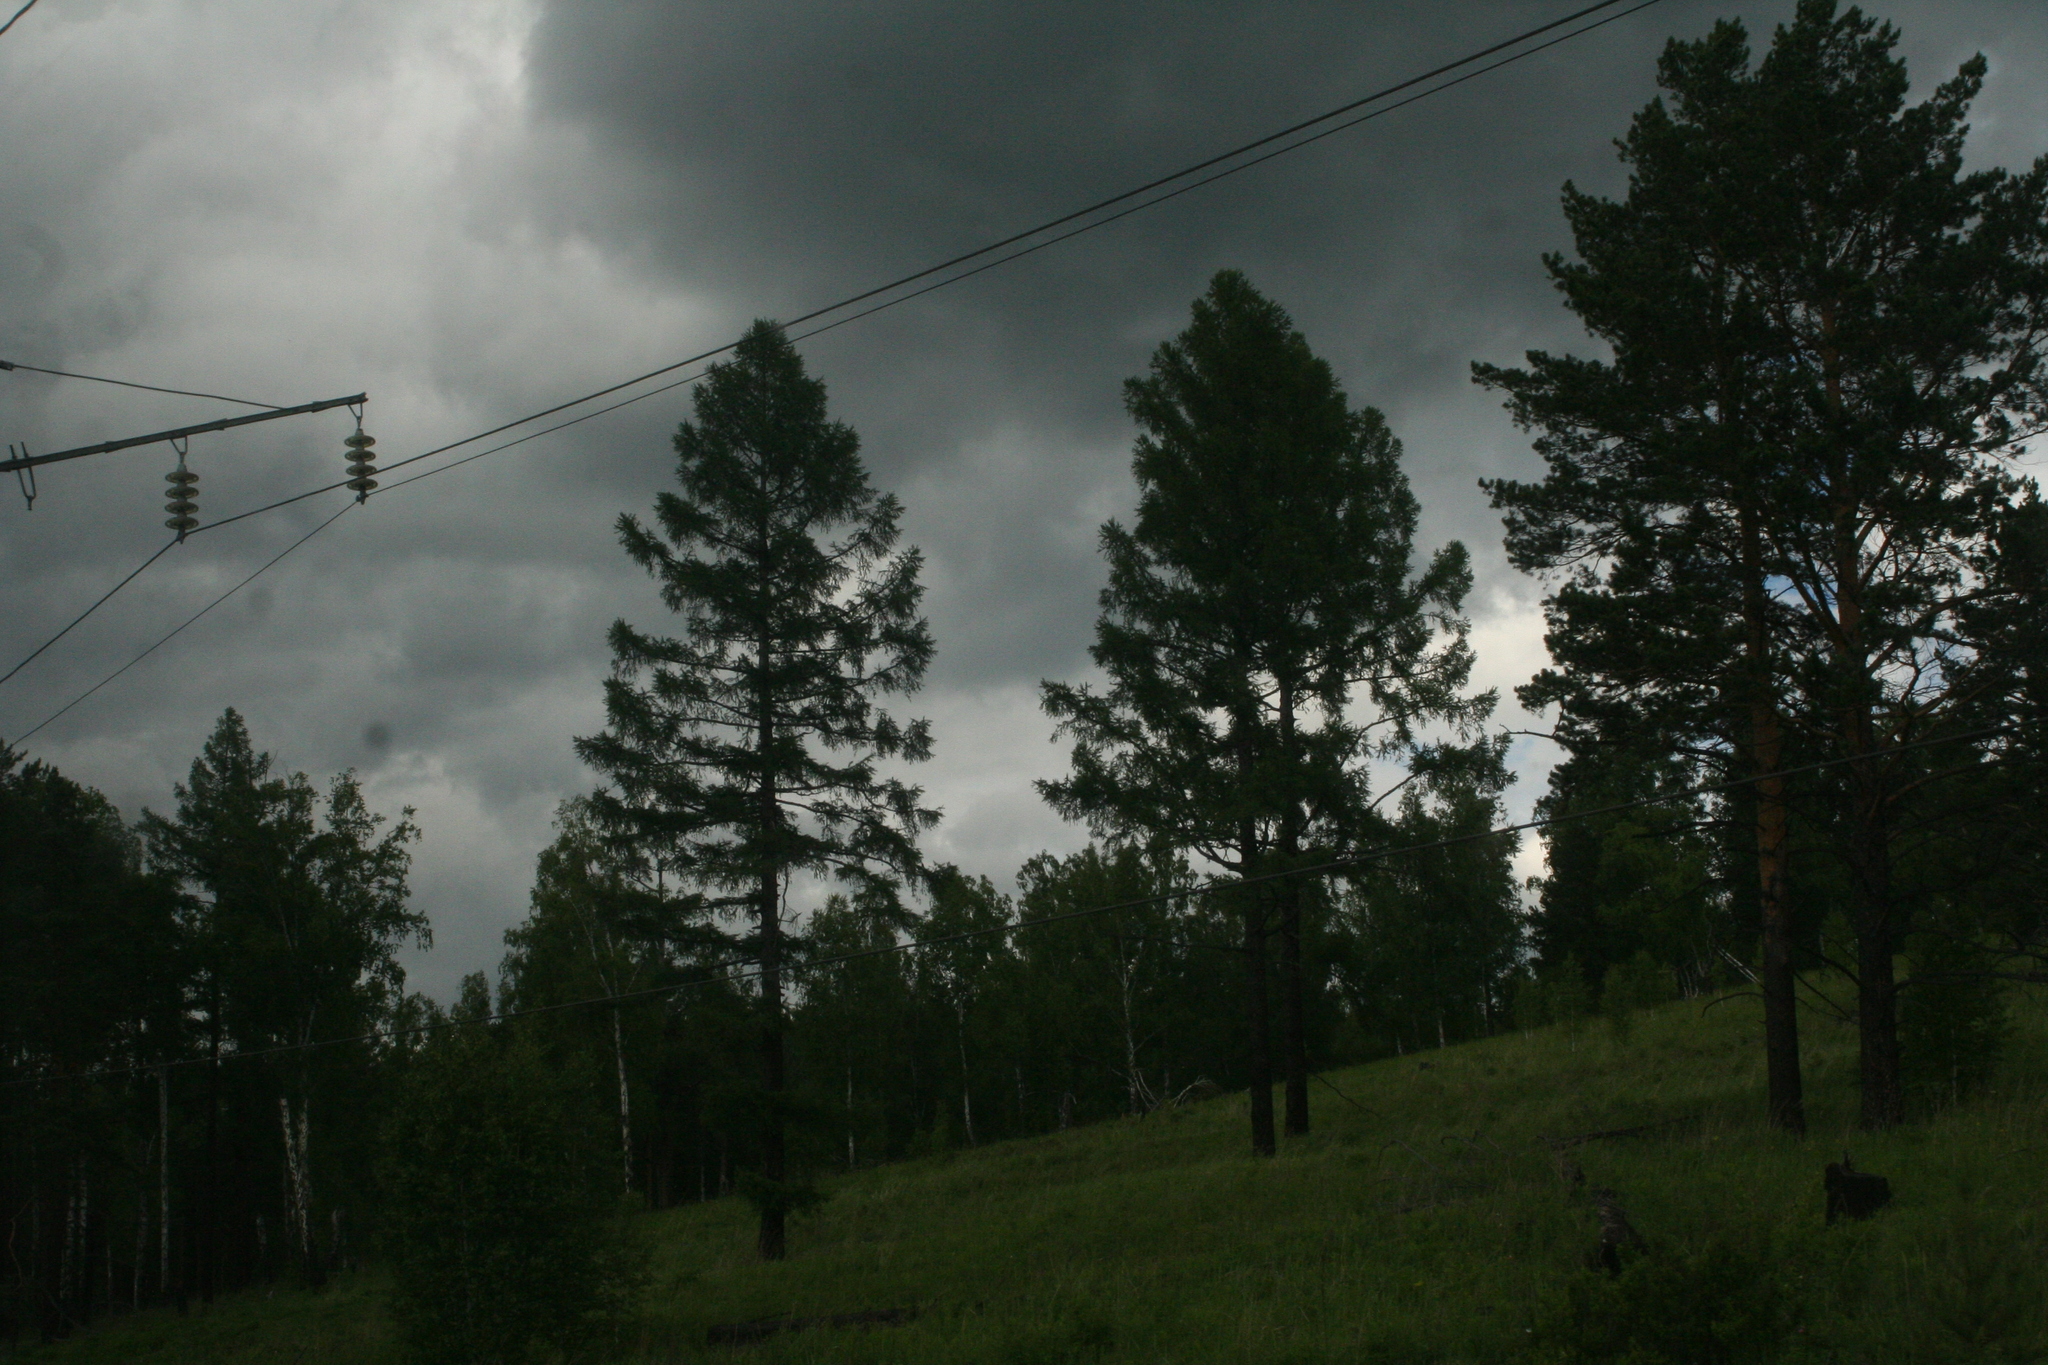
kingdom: Plantae
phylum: Tracheophyta
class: Pinopsida
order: Pinales
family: Pinaceae
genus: Larix
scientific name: Larix sibirica
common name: Siberian larch
